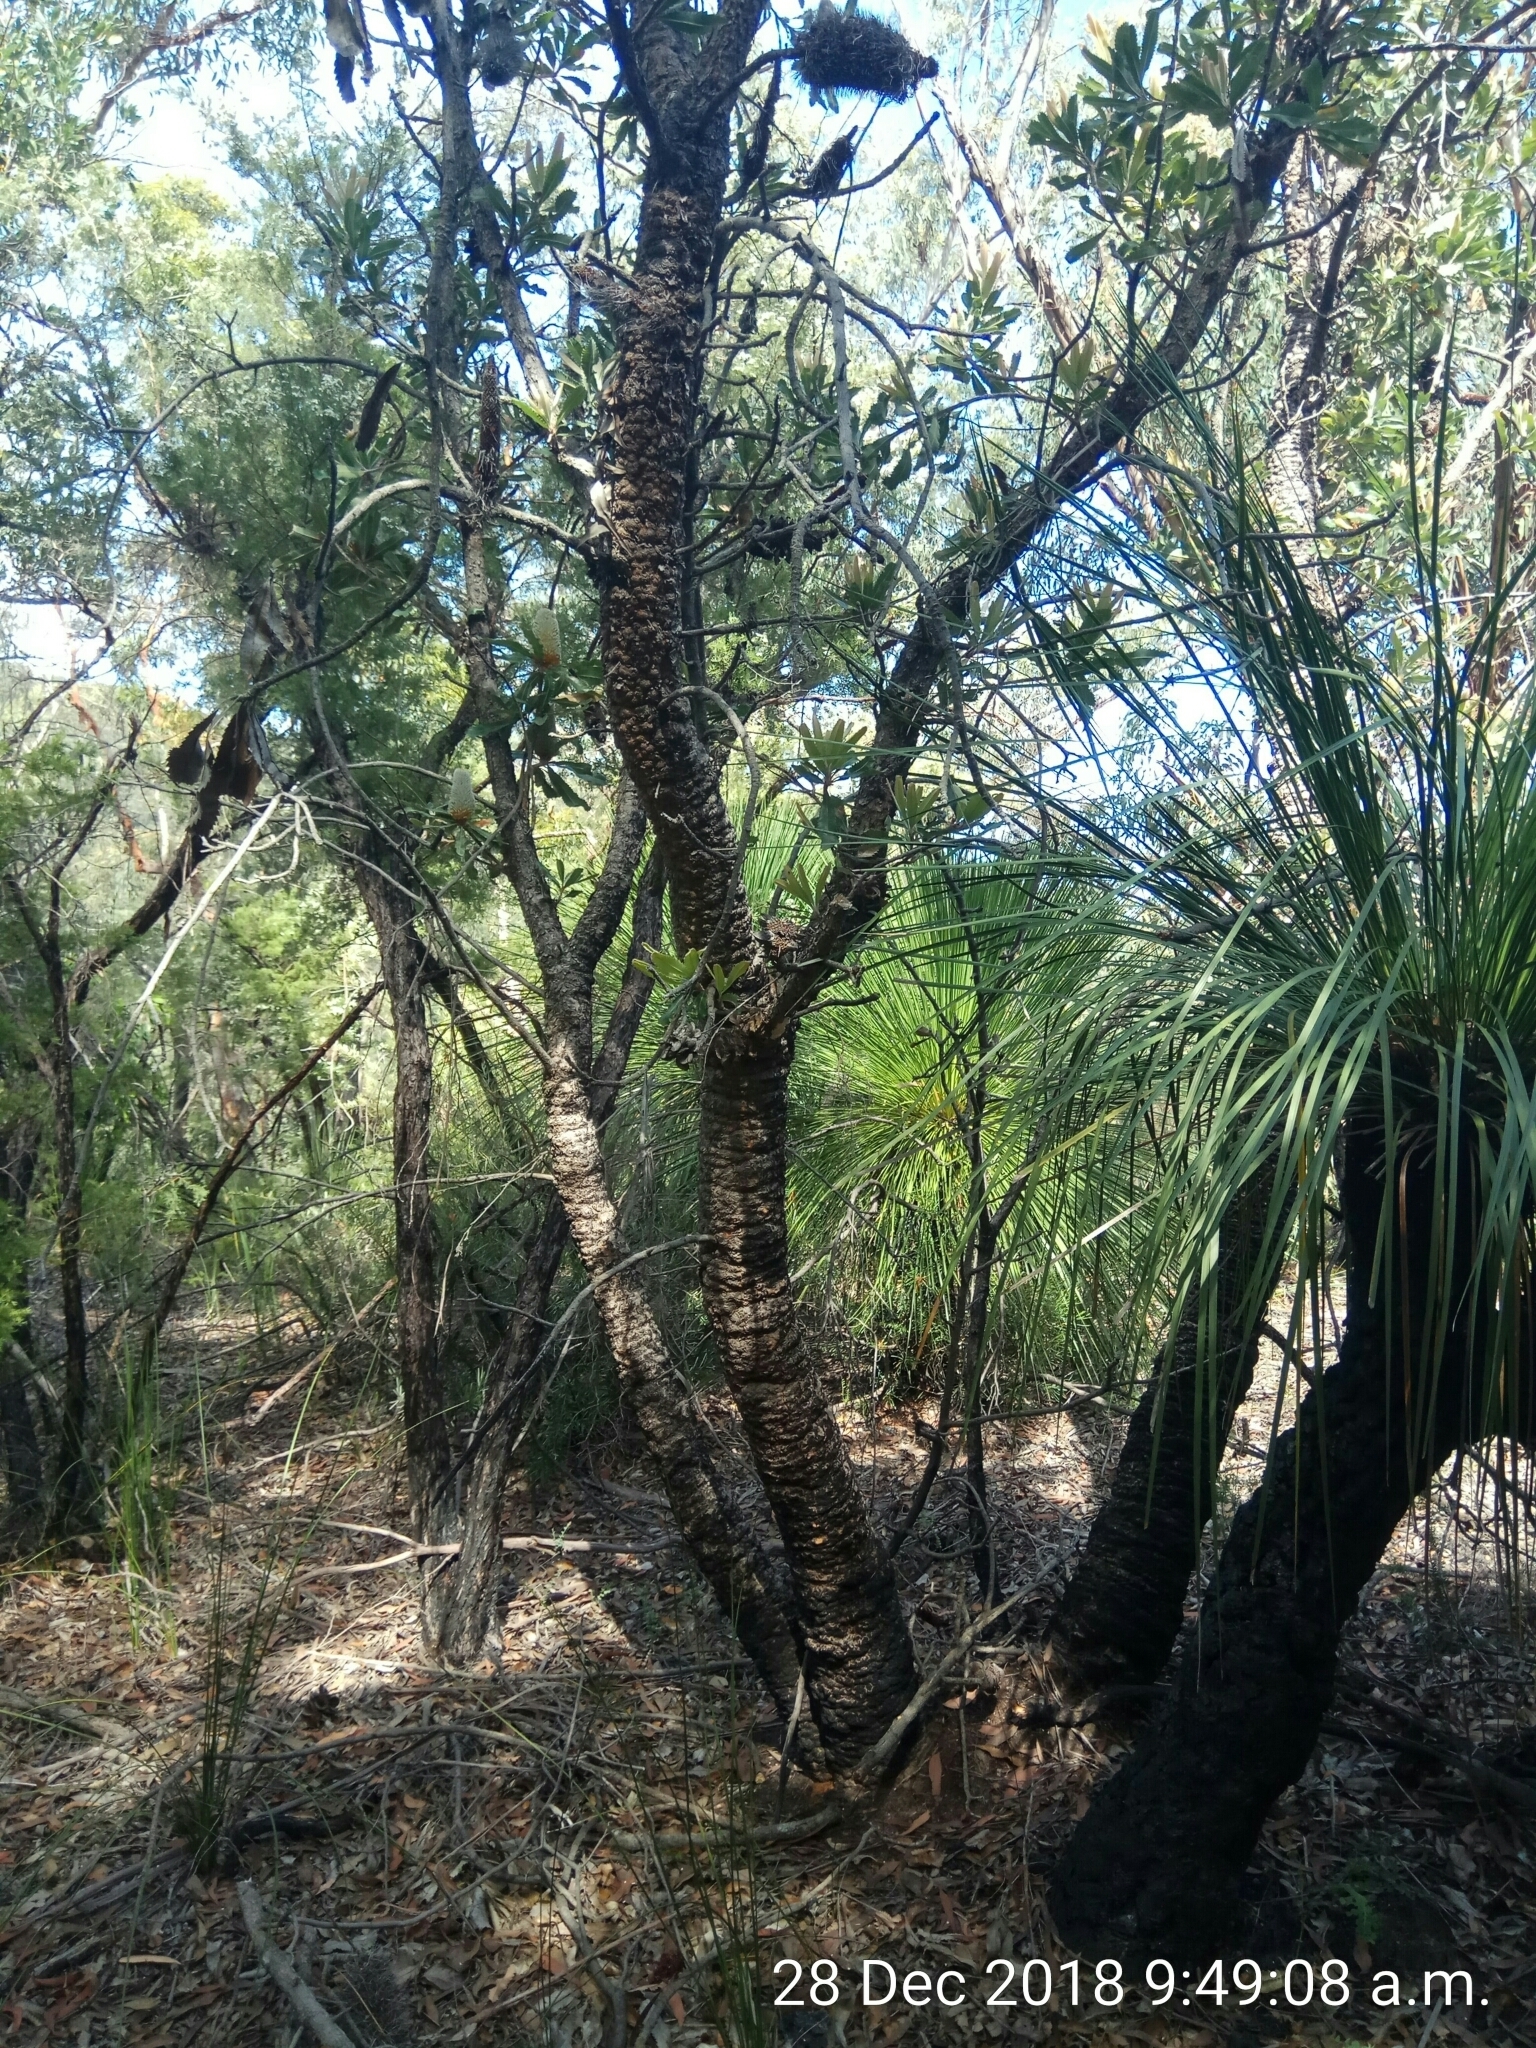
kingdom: Plantae
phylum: Tracheophyta
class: Liliopsida
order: Asparagales
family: Asphodelaceae
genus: Xanthorrhoea
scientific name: Xanthorrhoea arborea
